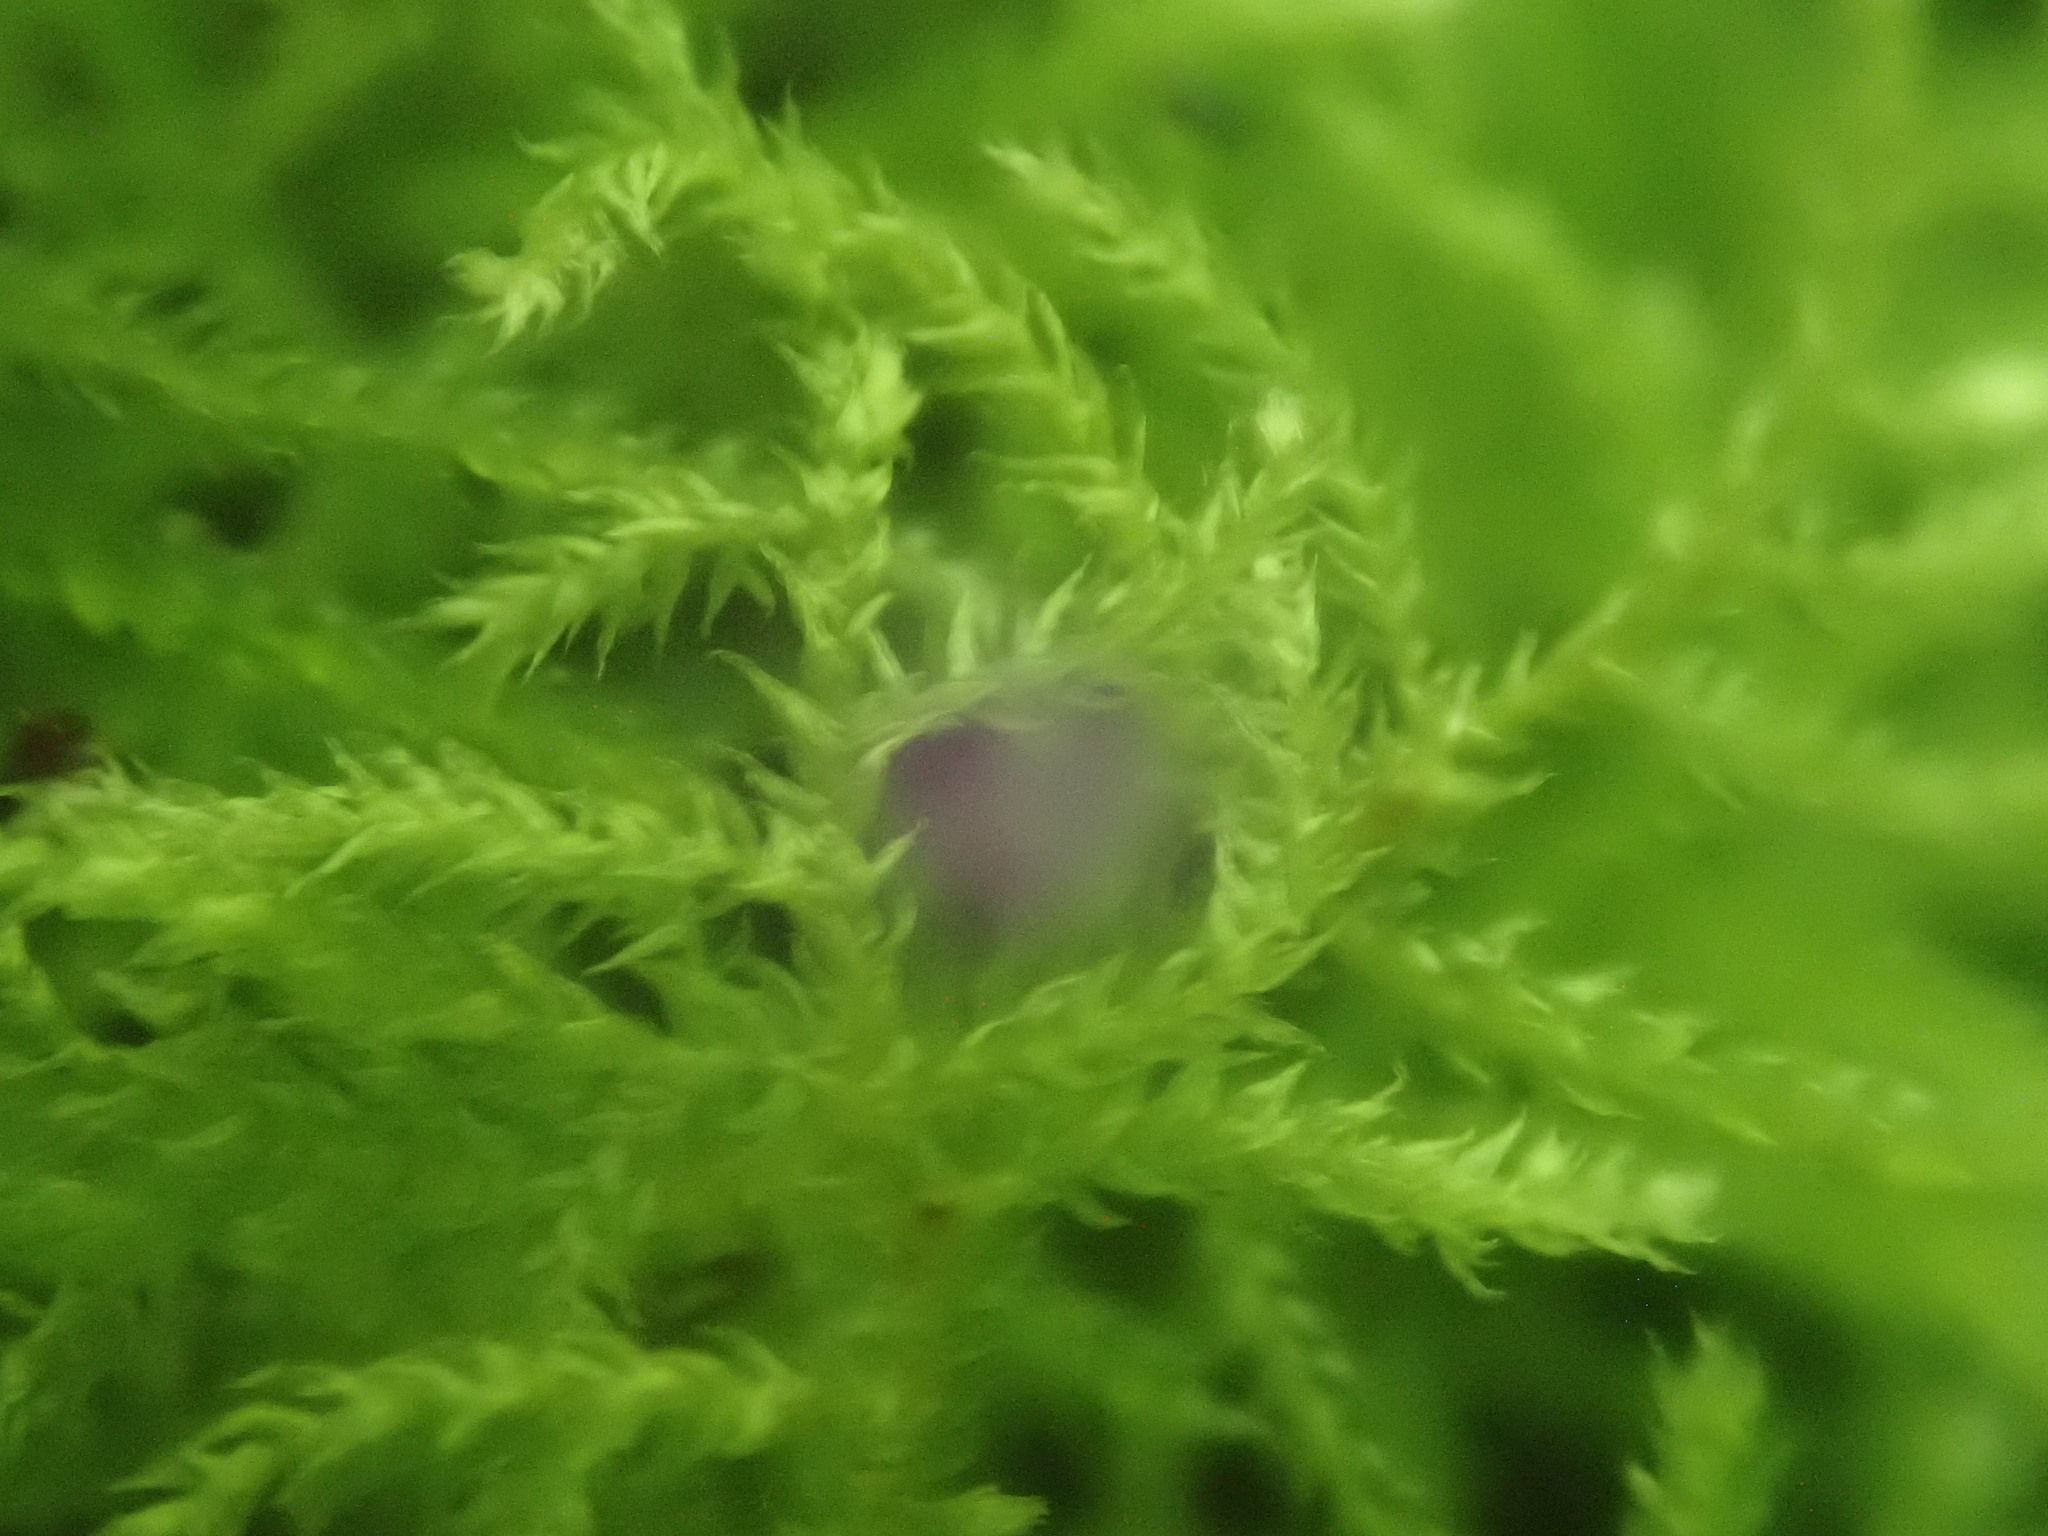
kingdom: Plantae
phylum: Bryophyta
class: Bryopsida
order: Hypnales
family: Brachytheciaceae
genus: Brachythecium
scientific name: Brachythecium novae-angliae
